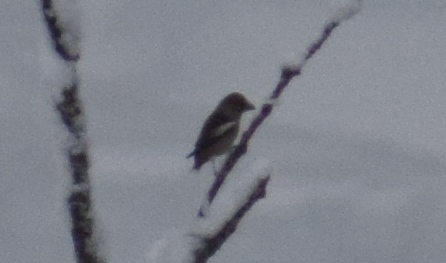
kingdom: Animalia
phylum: Chordata
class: Aves
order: Passeriformes
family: Fringillidae
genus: Coccothraustes
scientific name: Coccothraustes coccothraustes
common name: Hawfinch
